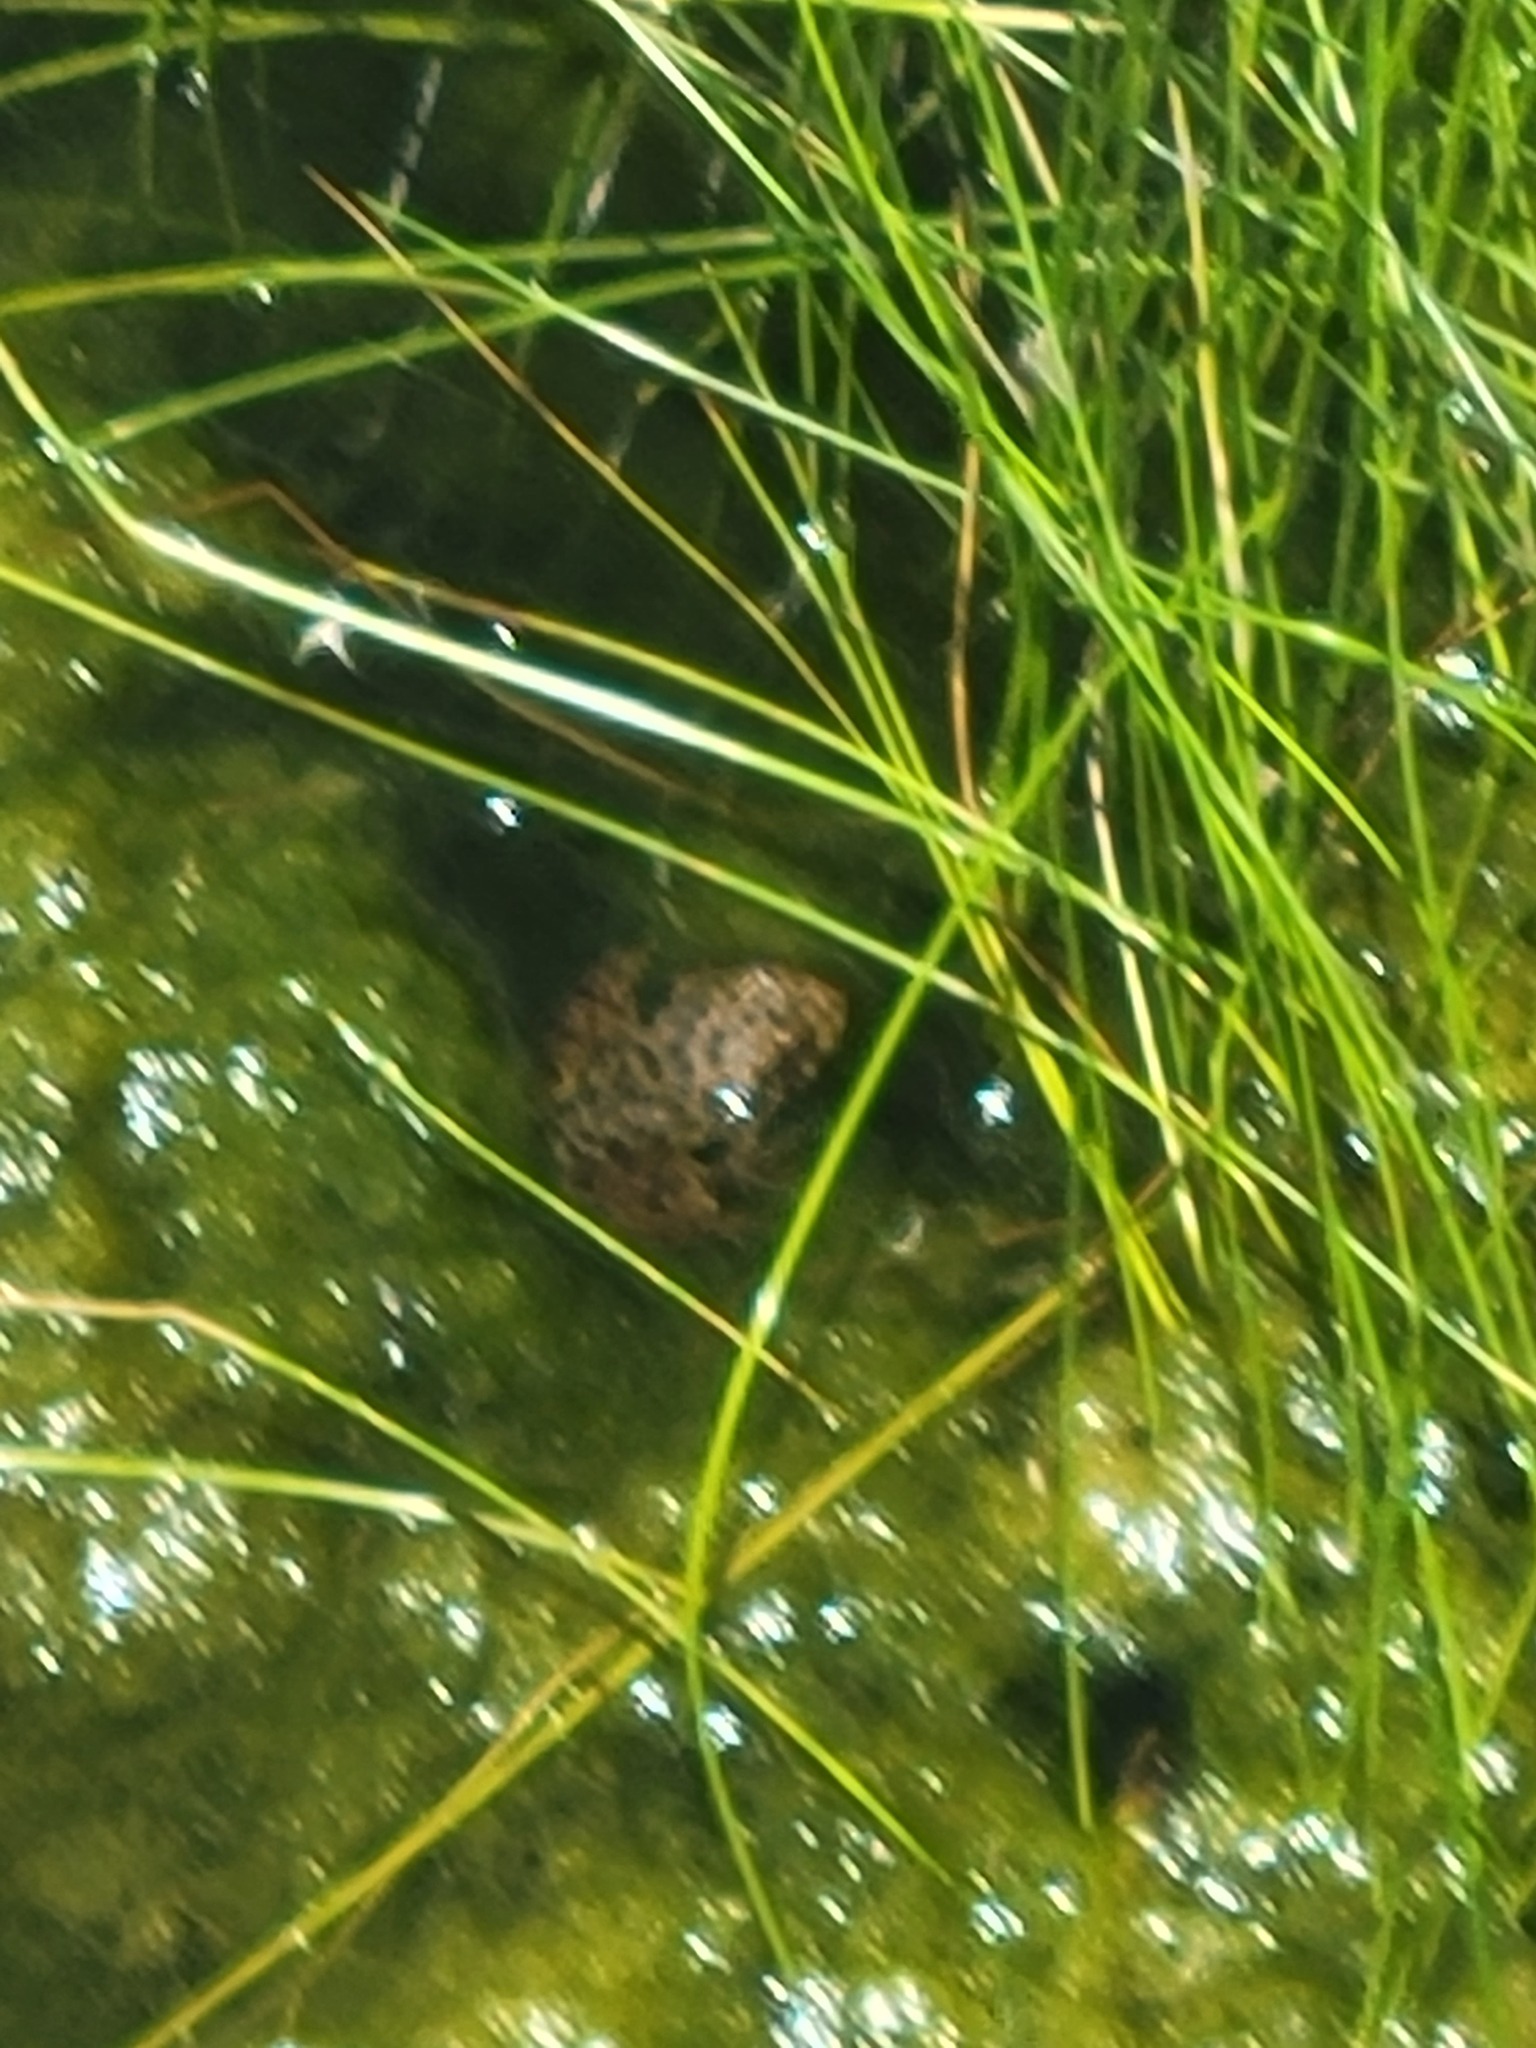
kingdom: Animalia
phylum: Chordata
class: Amphibia
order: Anura
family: Ranidae
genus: Lithobates
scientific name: Lithobates catesbeianus
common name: American bullfrog
